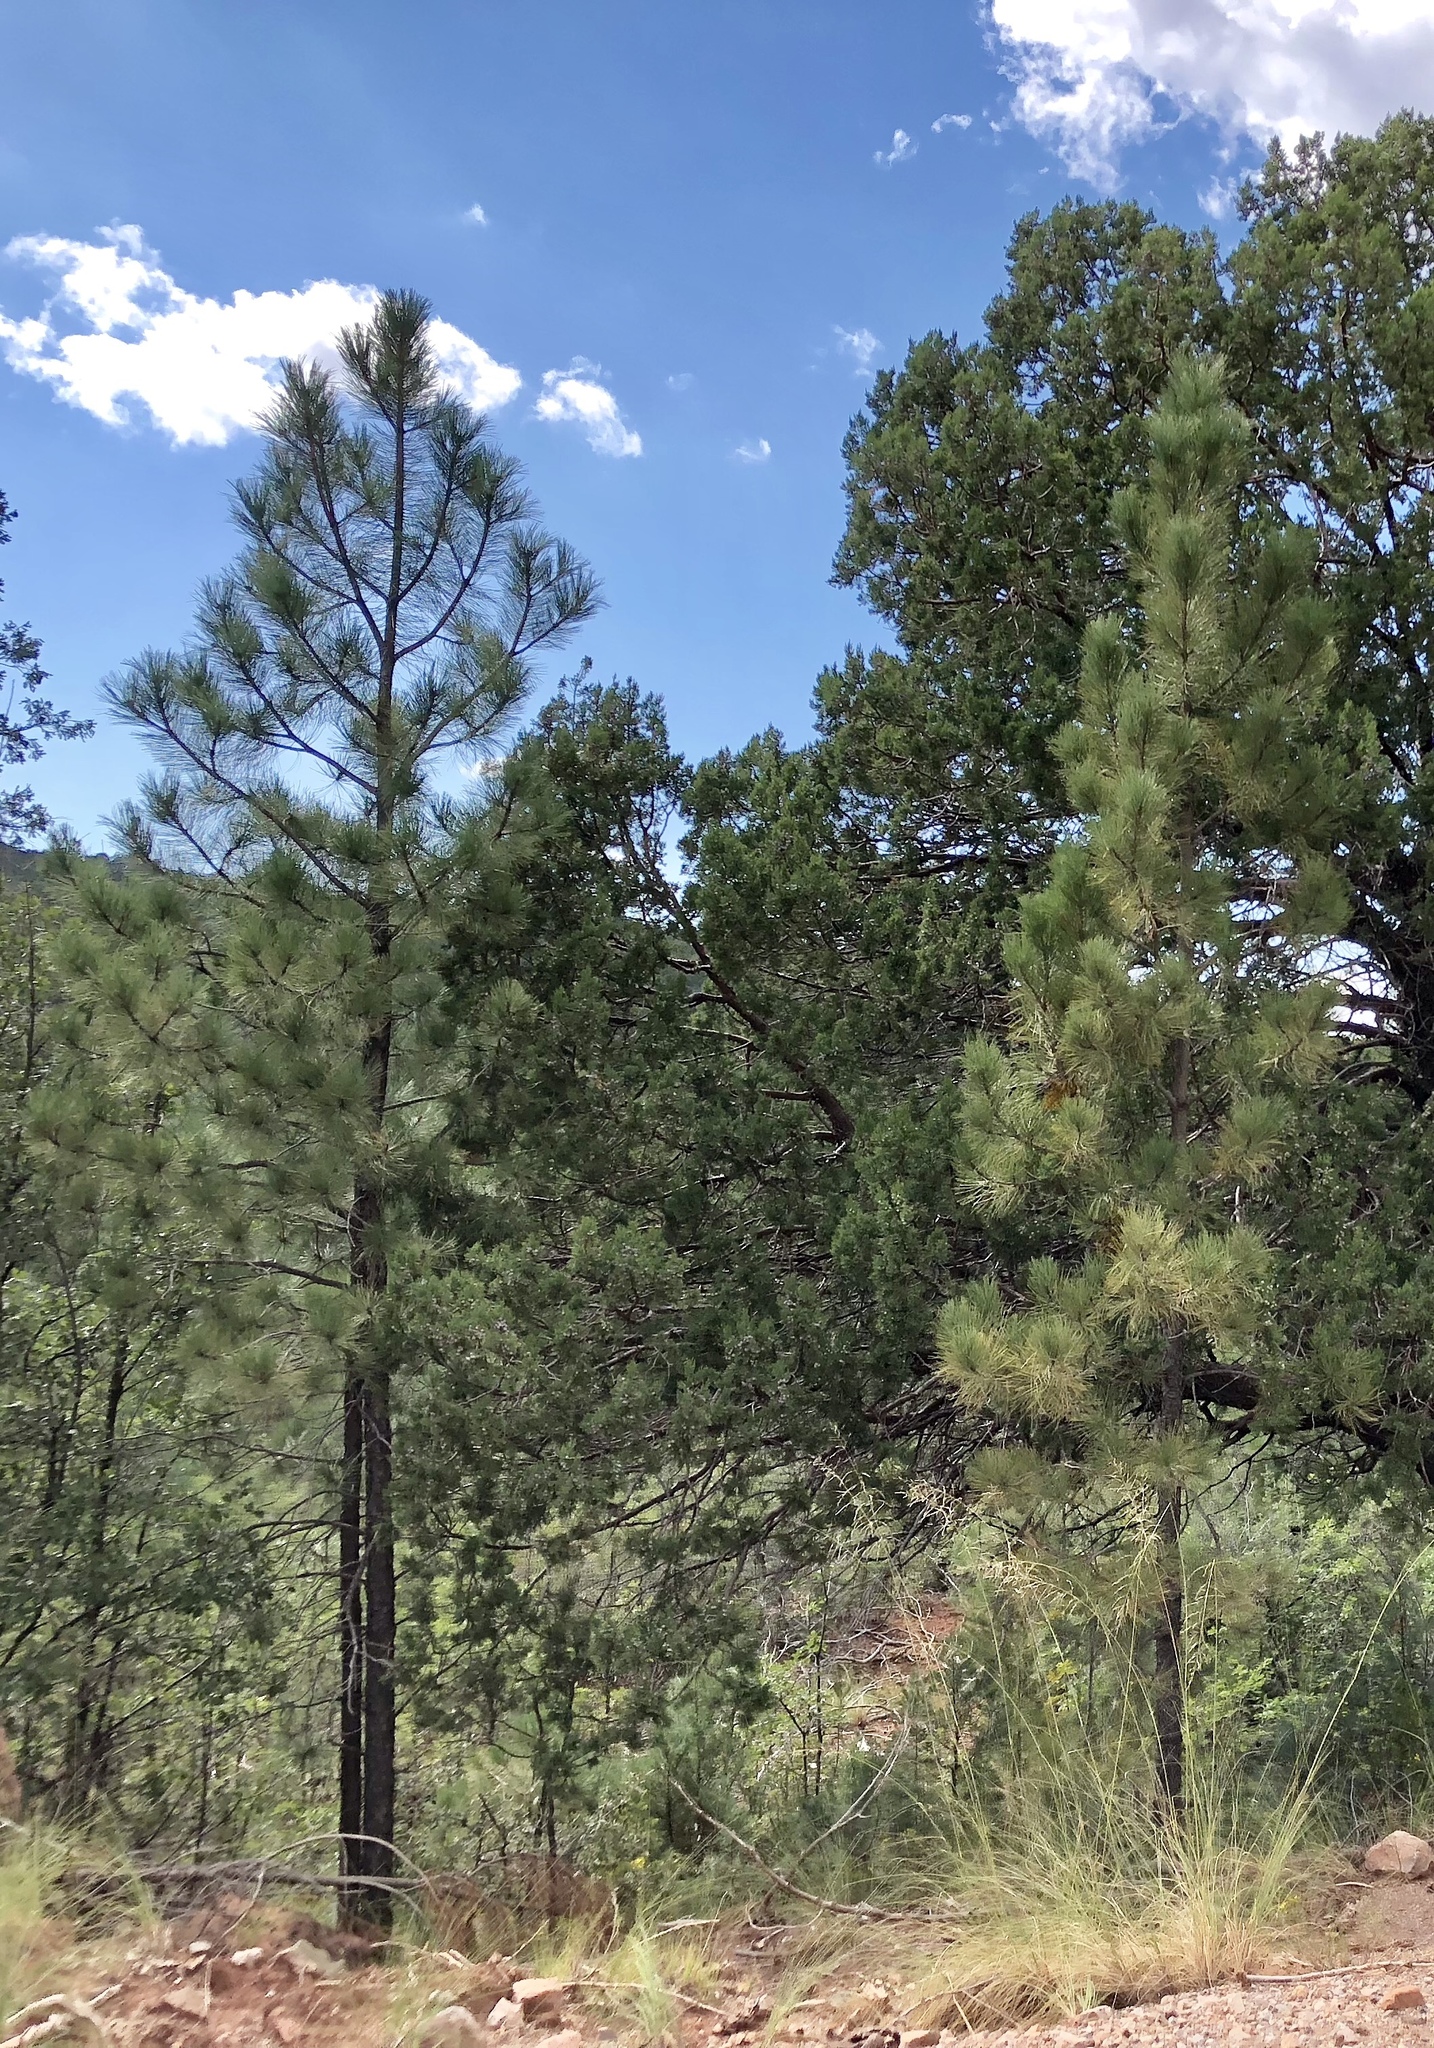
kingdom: Plantae
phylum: Tracheophyta
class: Pinopsida
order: Pinales
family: Pinaceae
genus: Pinus
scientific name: Pinus ponderosa
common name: Western yellow-pine
